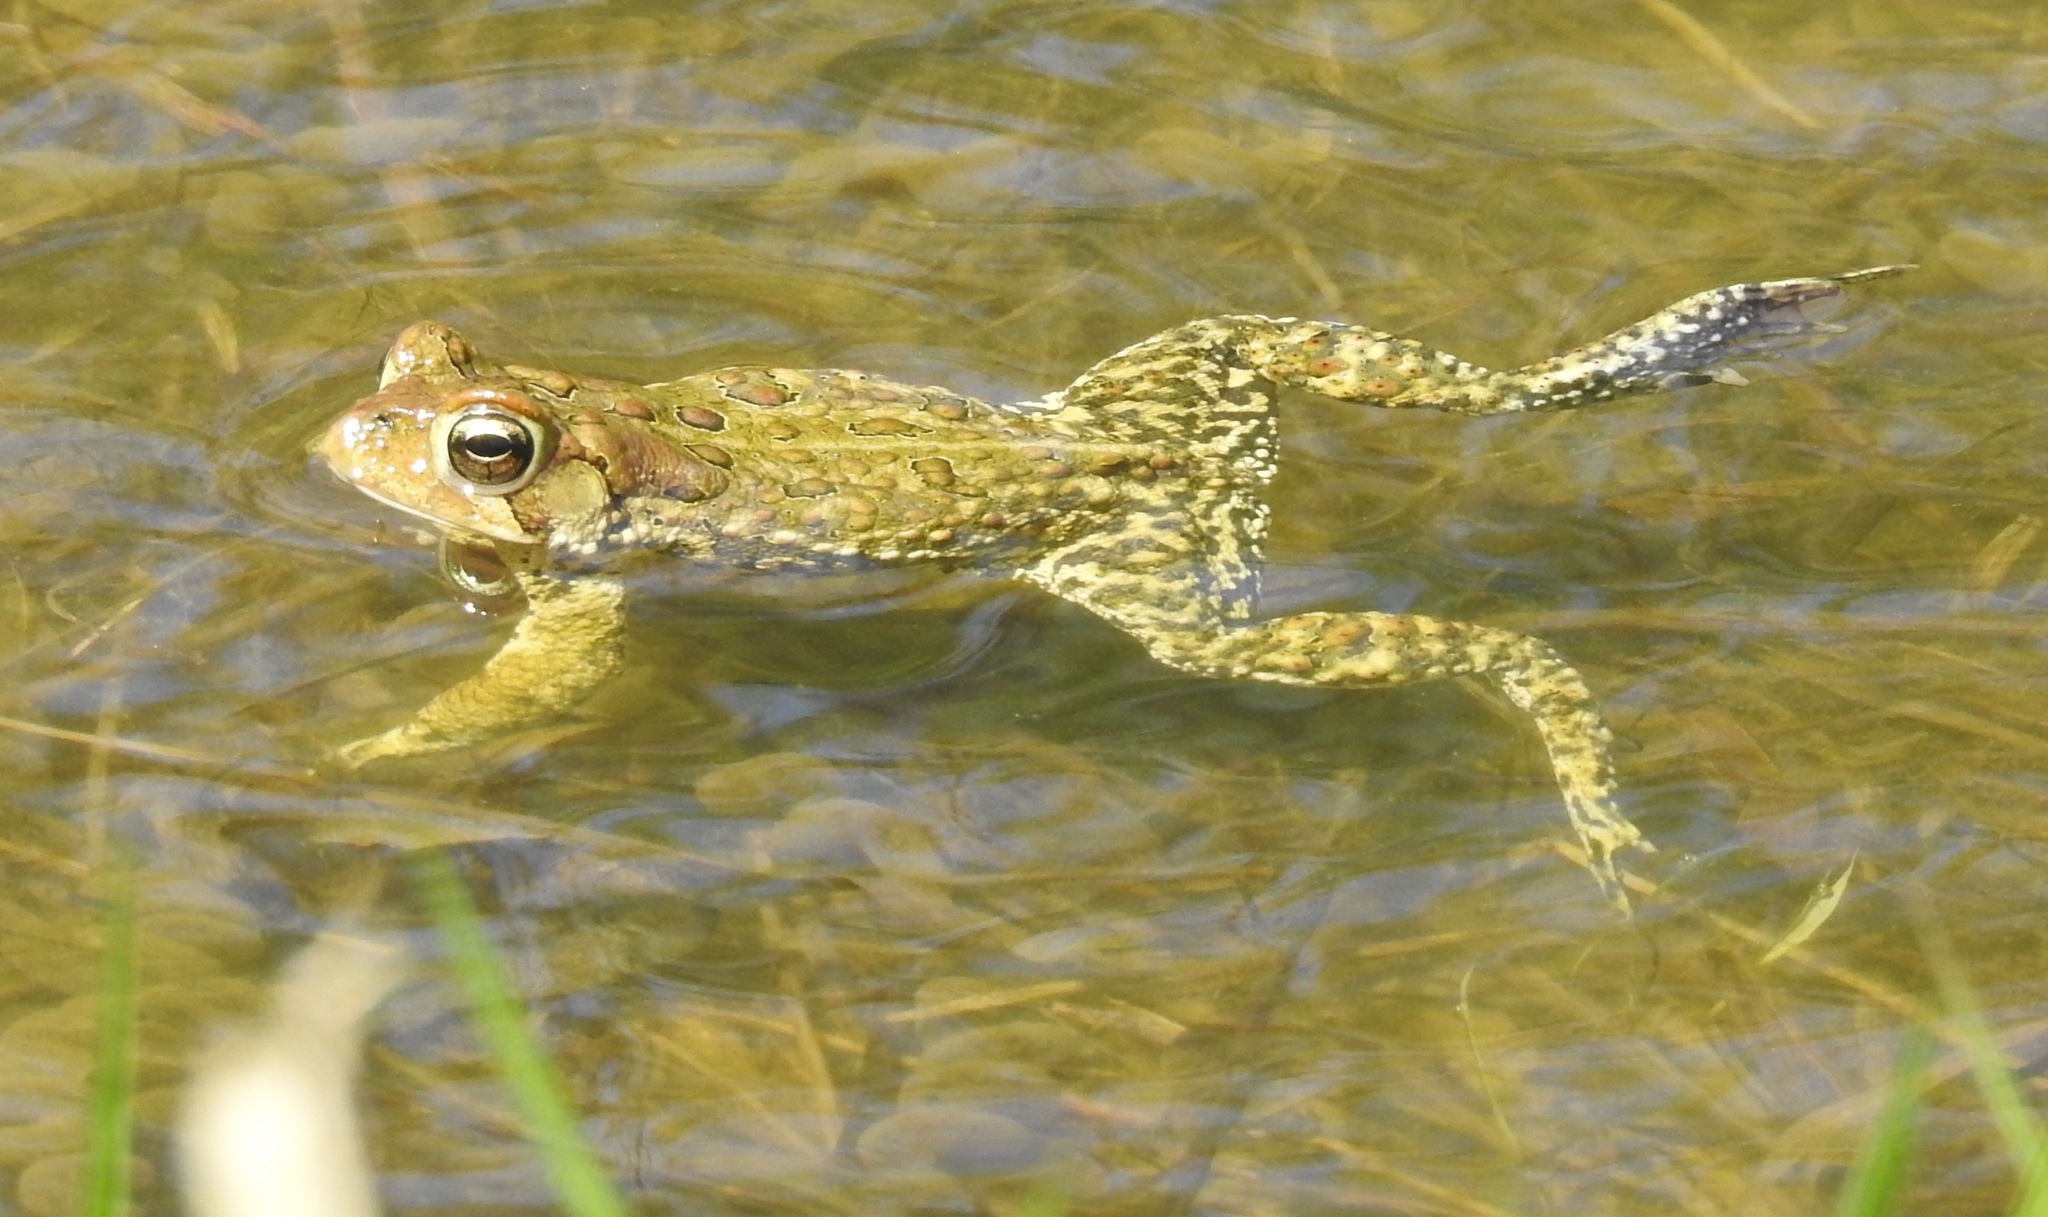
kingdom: Animalia
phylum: Chordata
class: Amphibia
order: Anura
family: Bufonidae
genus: Anaxyrus
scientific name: Anaxyrus americanus
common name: American toad
